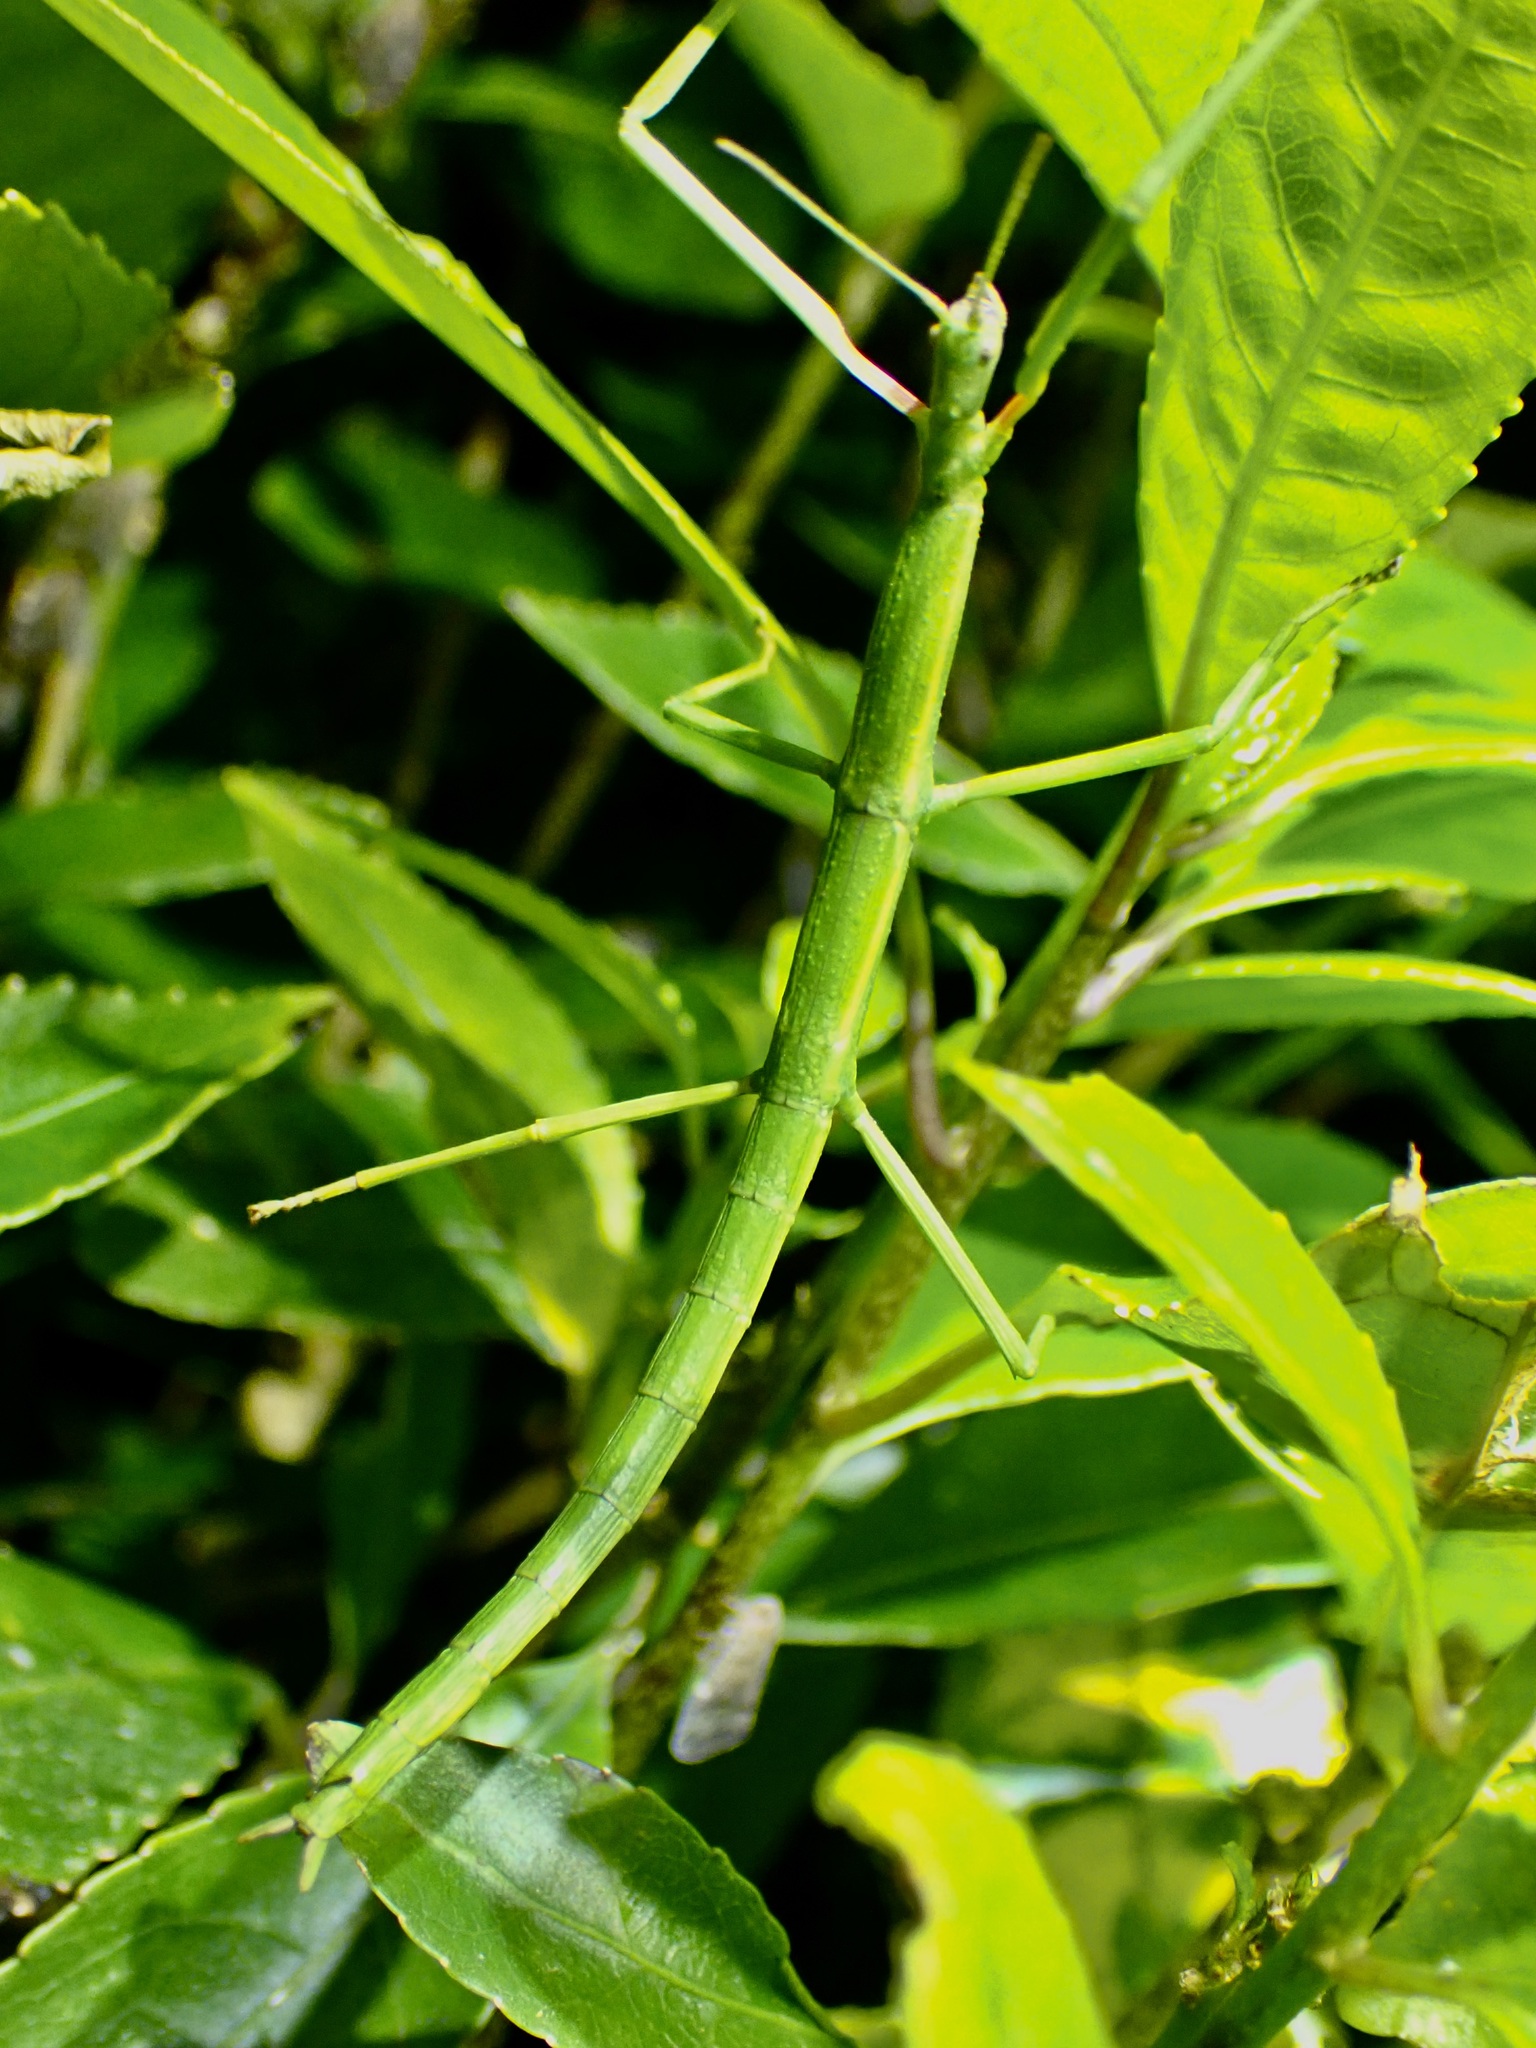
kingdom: Animalia
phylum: Arthropoda
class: Insecta
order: Phasmida
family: Phasmatidae
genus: Clitarchus
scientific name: Clitarchus hookeri
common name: Smooth stick insect
